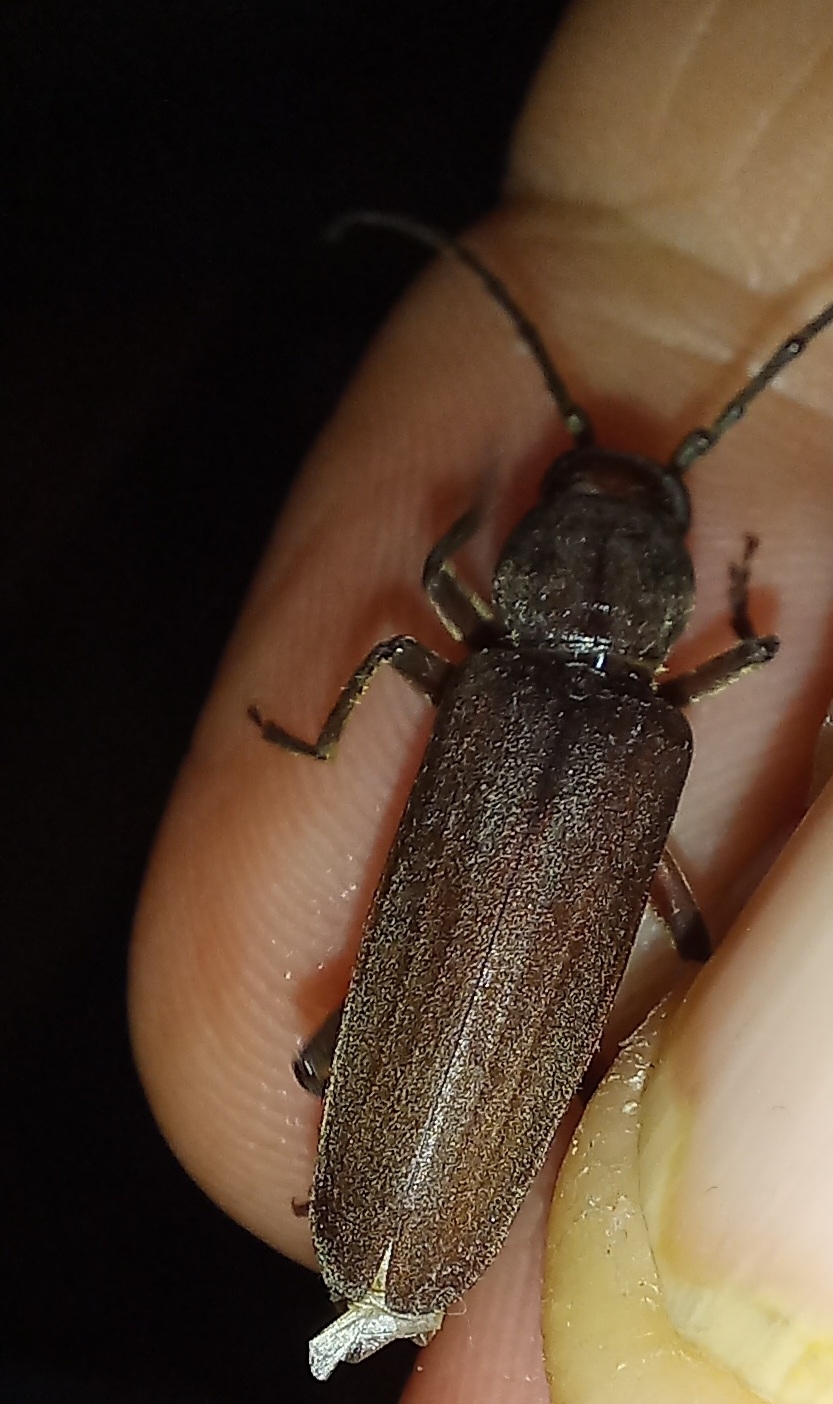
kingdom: Animalia
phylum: Arthropoda
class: Insecta
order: Coleoptera
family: Cerambycidae
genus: Arhopalus
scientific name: Arhopalus ferus
